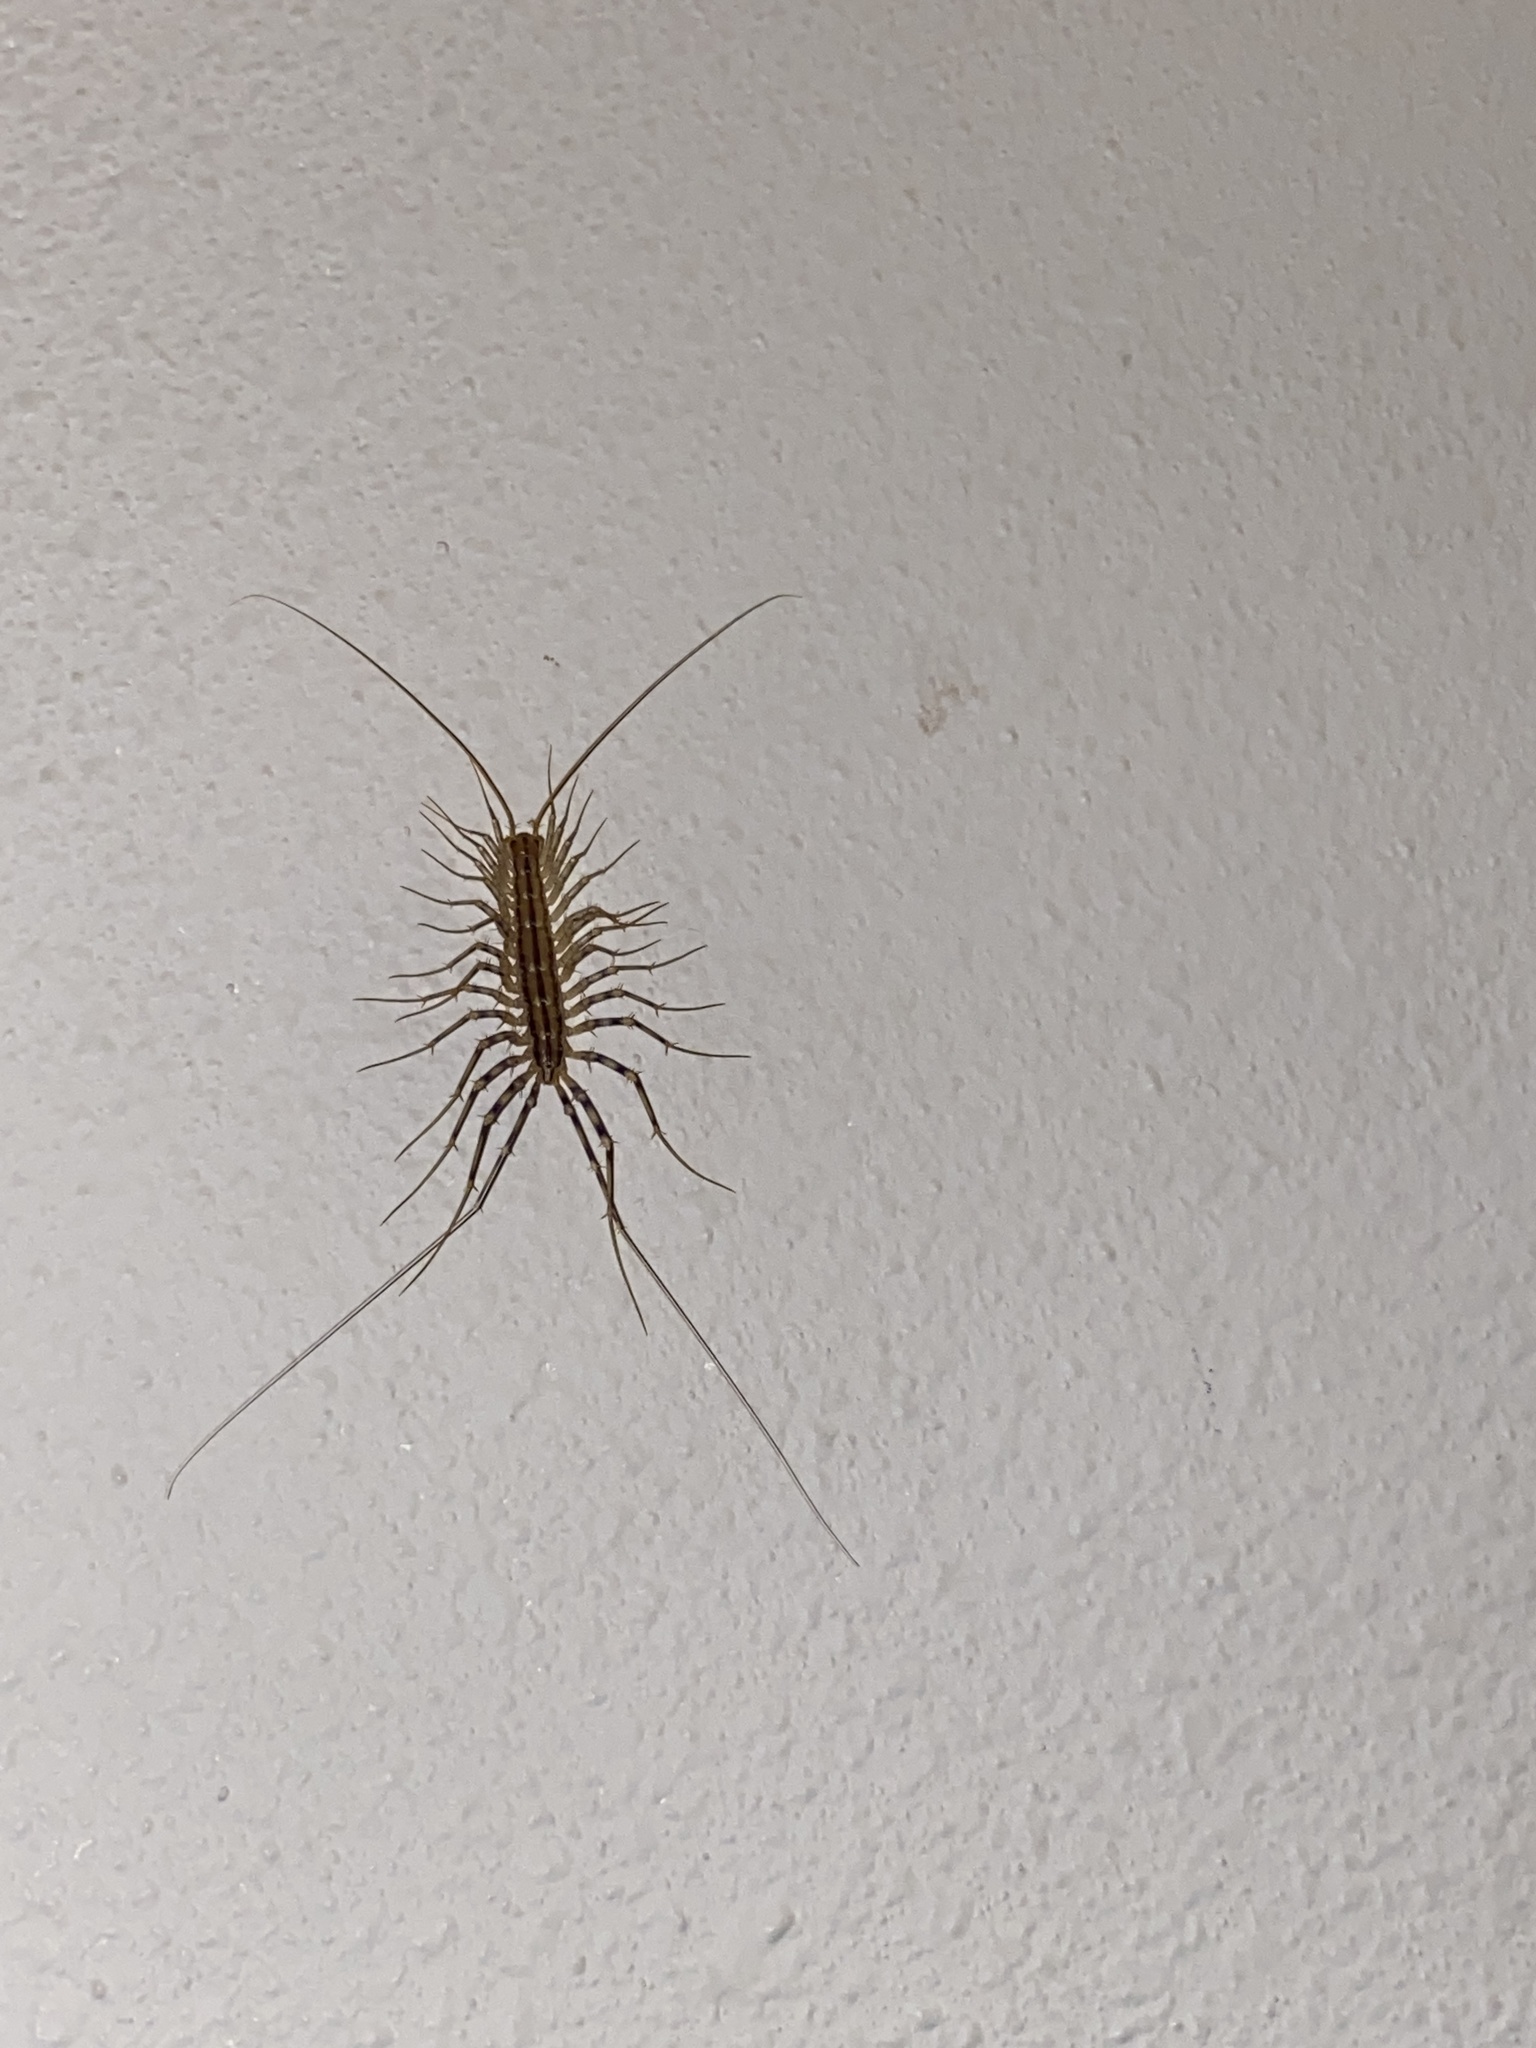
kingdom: Animalia
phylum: Arthropoda
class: Chilopoda
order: Scutigeromorpha
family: Scutigeridae
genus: Scutigera
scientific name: Scutigera coleoptrata
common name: House centipede
